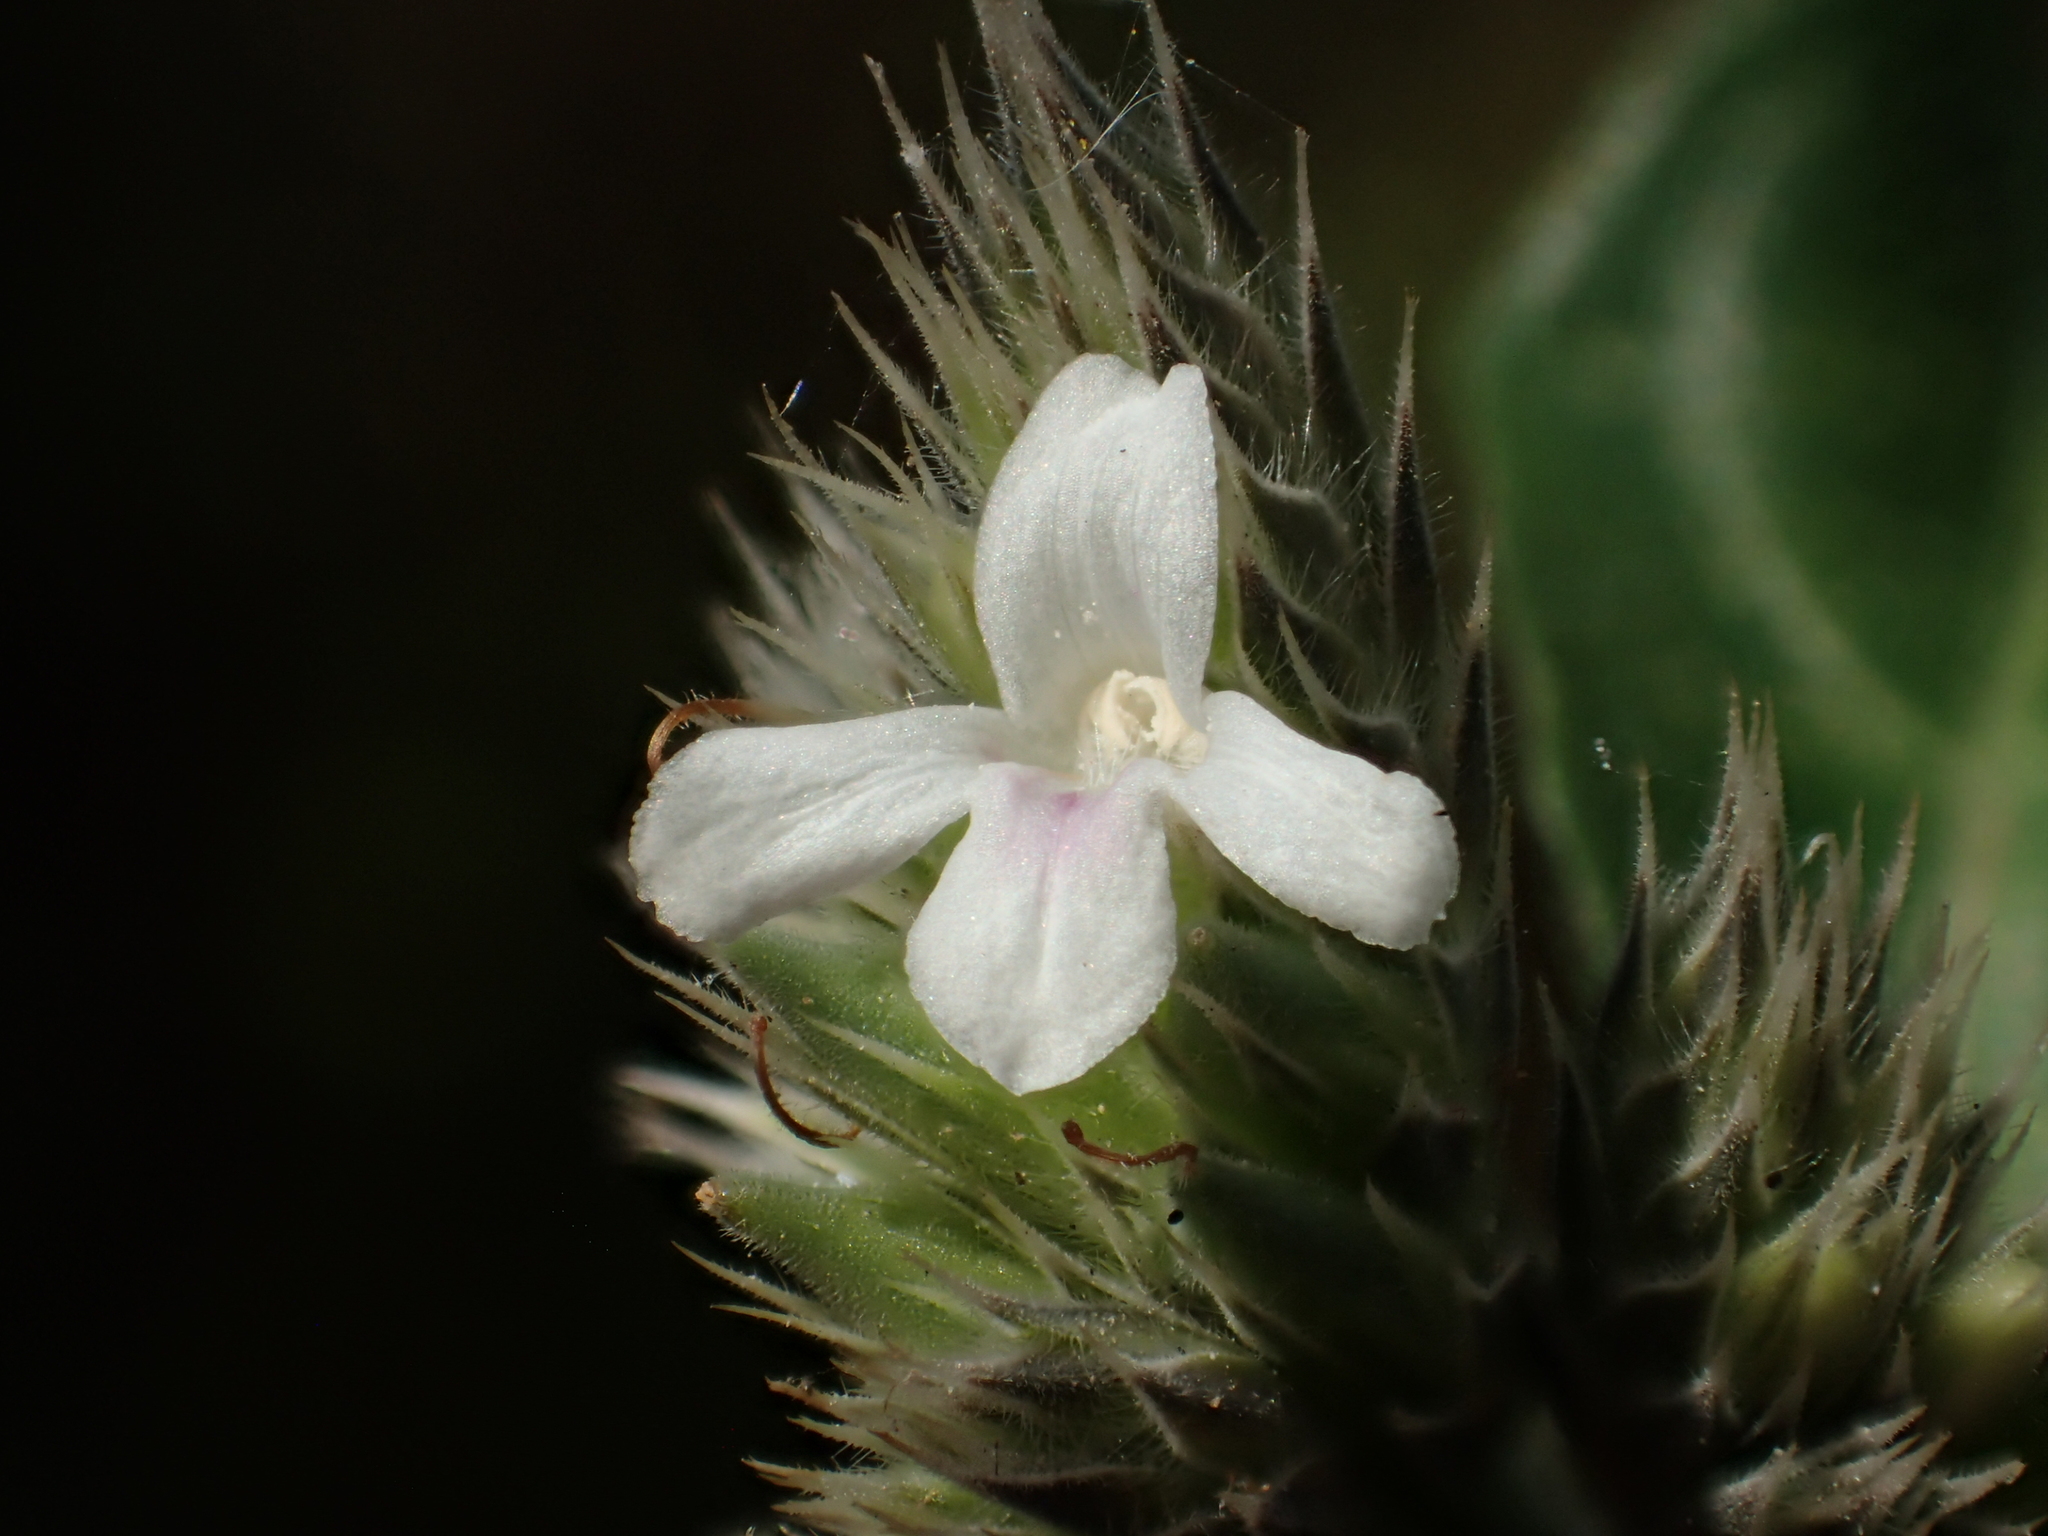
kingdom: Plantae
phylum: Tracheophyta
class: Magnoliopsida
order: Lamiales
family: Acanthaceae
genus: Lepidagathis
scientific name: Lepidagathis formosensis
